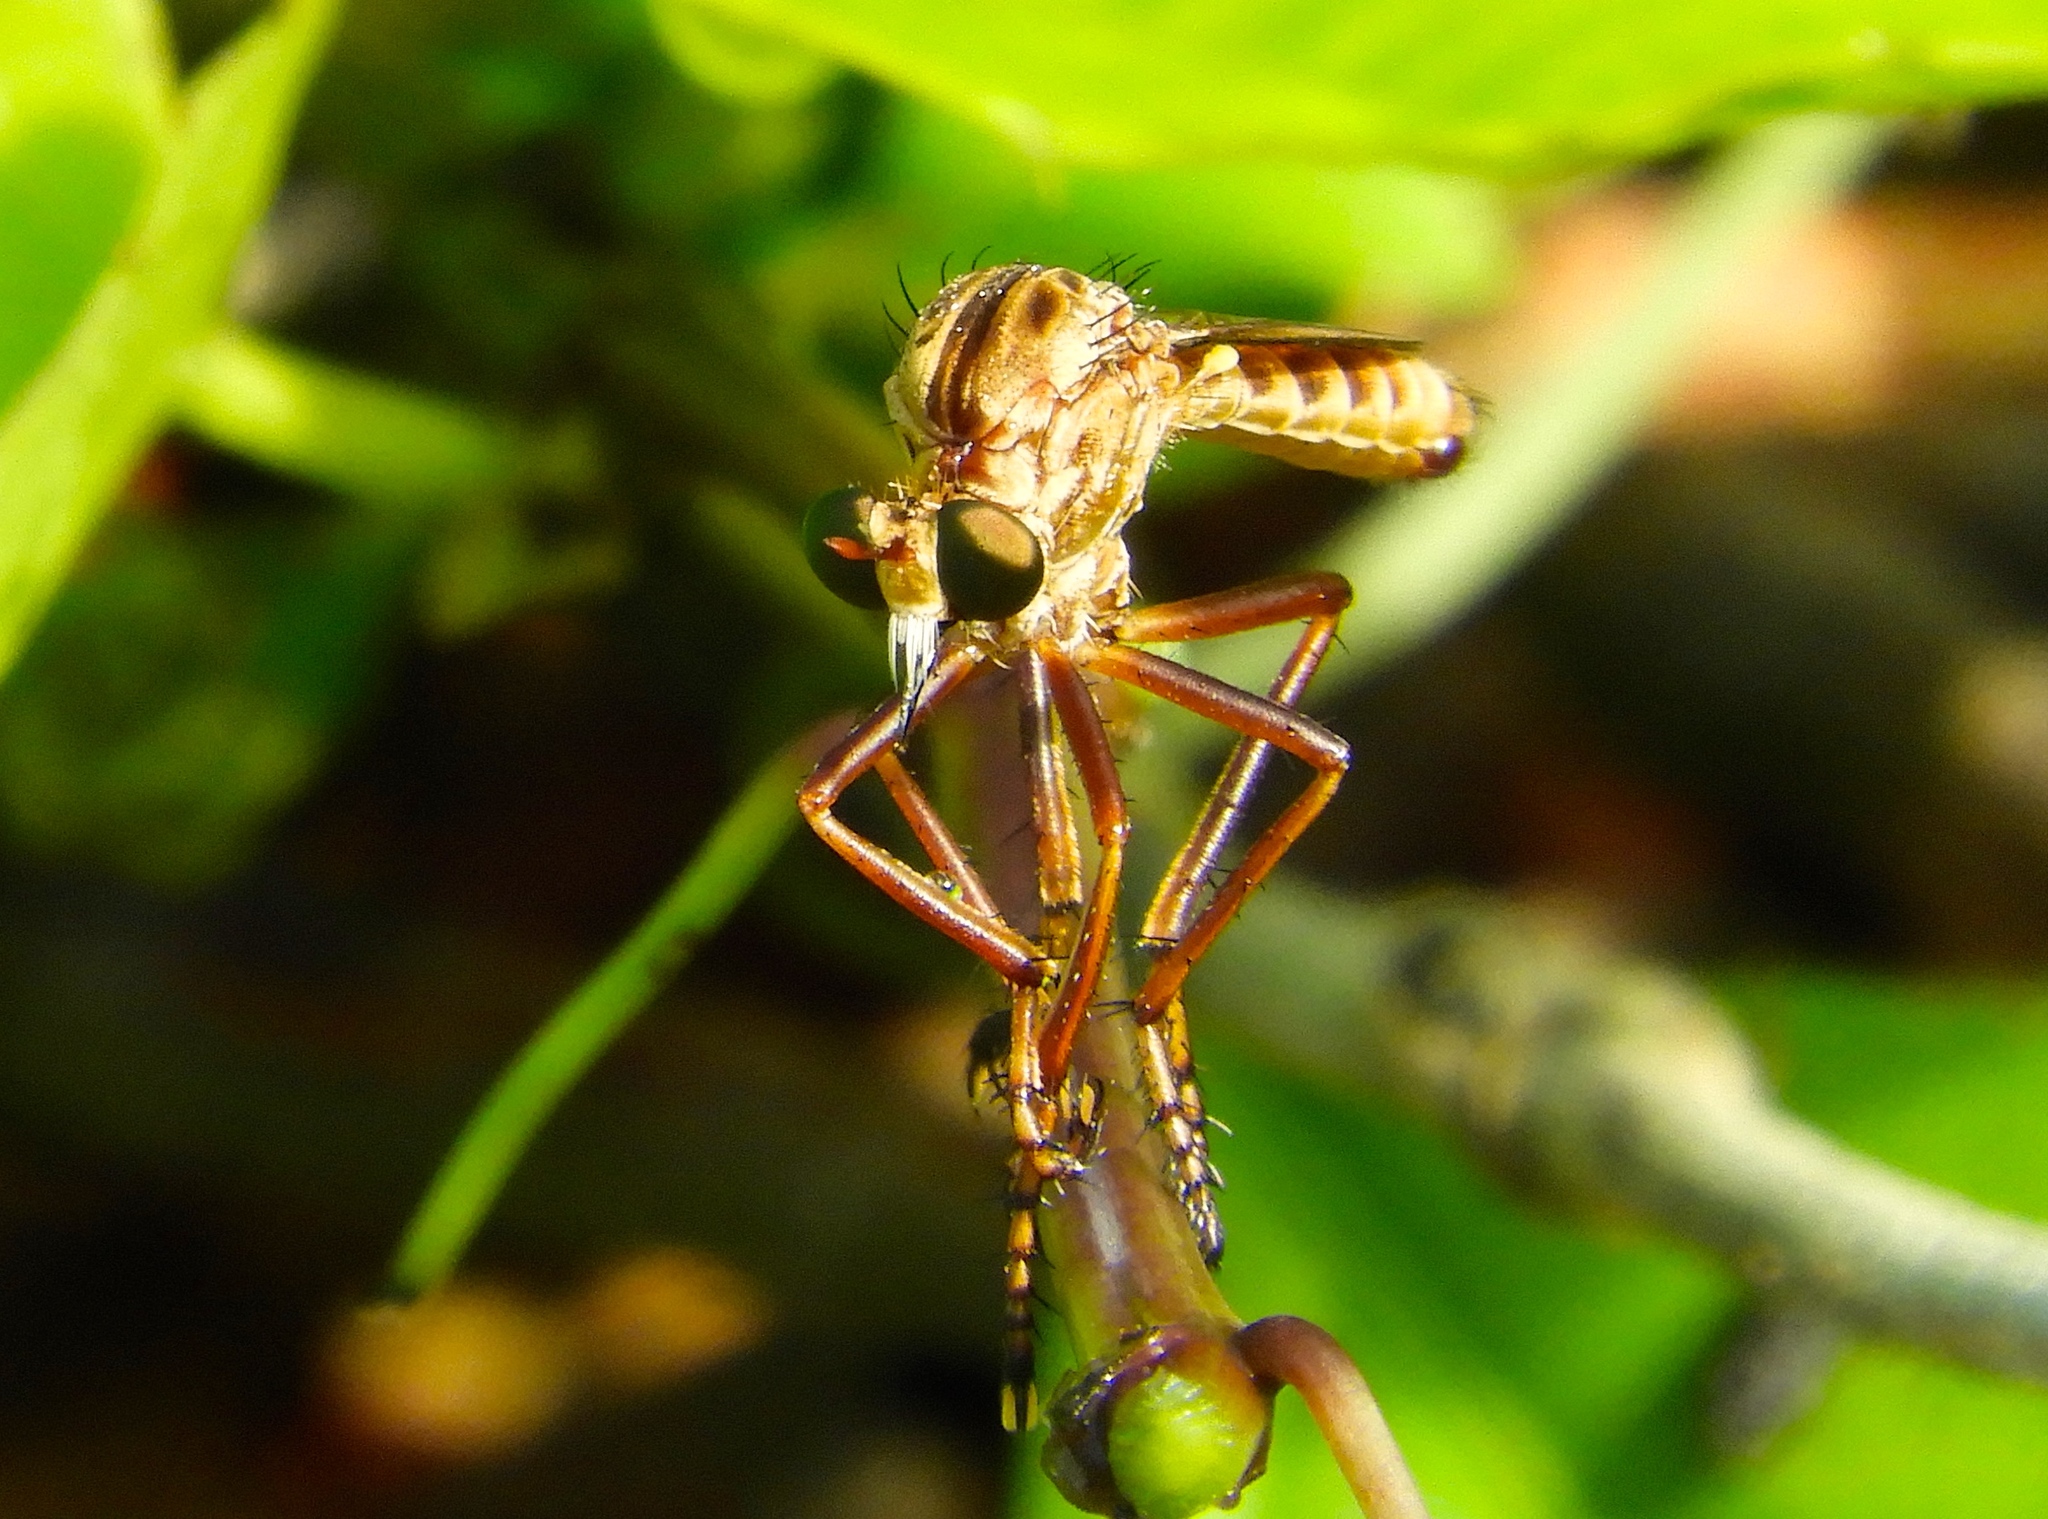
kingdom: Animalia
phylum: Arthropoda
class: Insecta
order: Diptera
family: Asilidae
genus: Diogmites
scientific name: Diogmites
